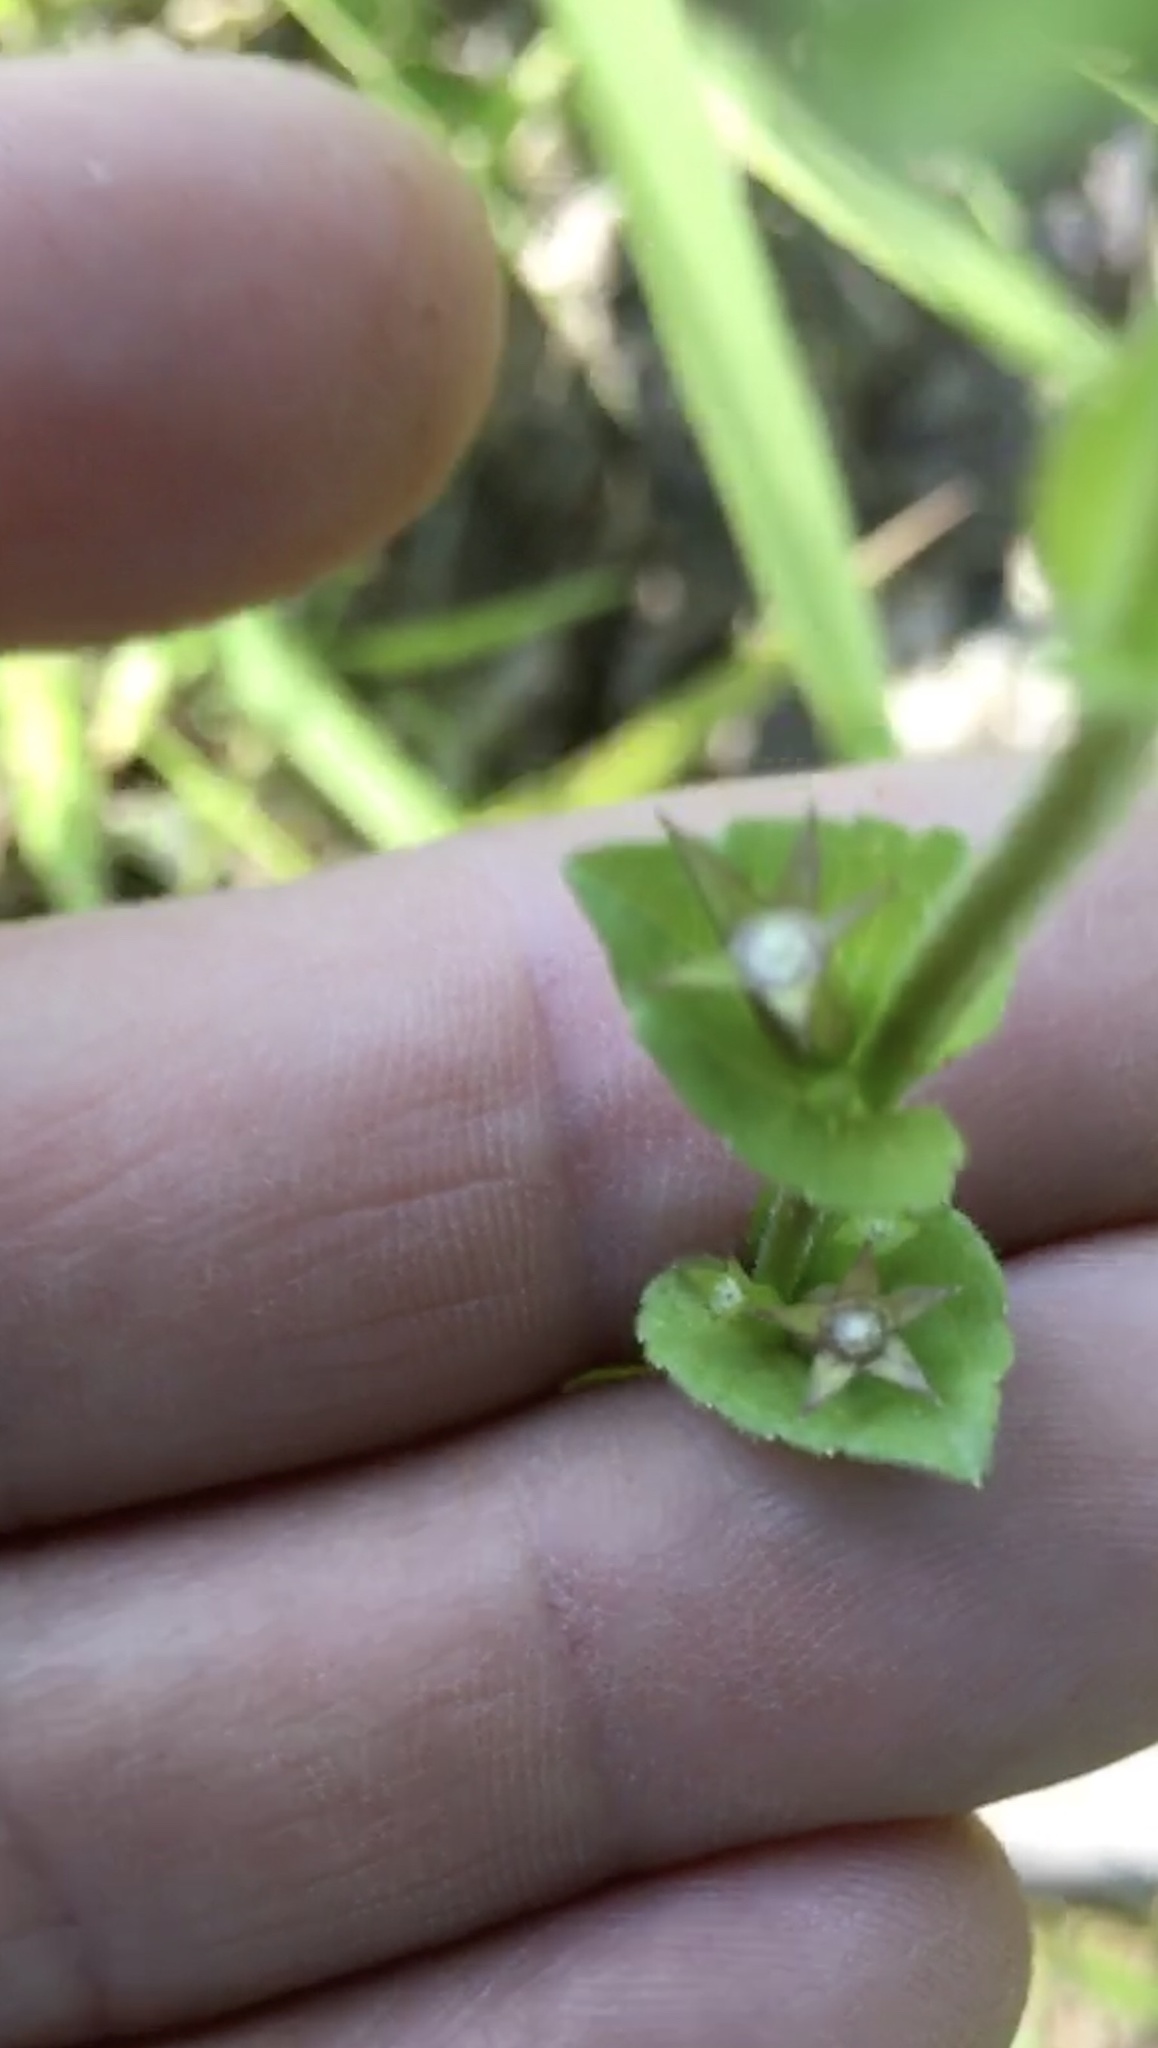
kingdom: Plantae
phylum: Tracheophyta
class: Magnoliopsida
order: Asterales
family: Campanulaceae
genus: Triodanis
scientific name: Triodanis perfoliata
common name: Clasping venus' looking-glass
